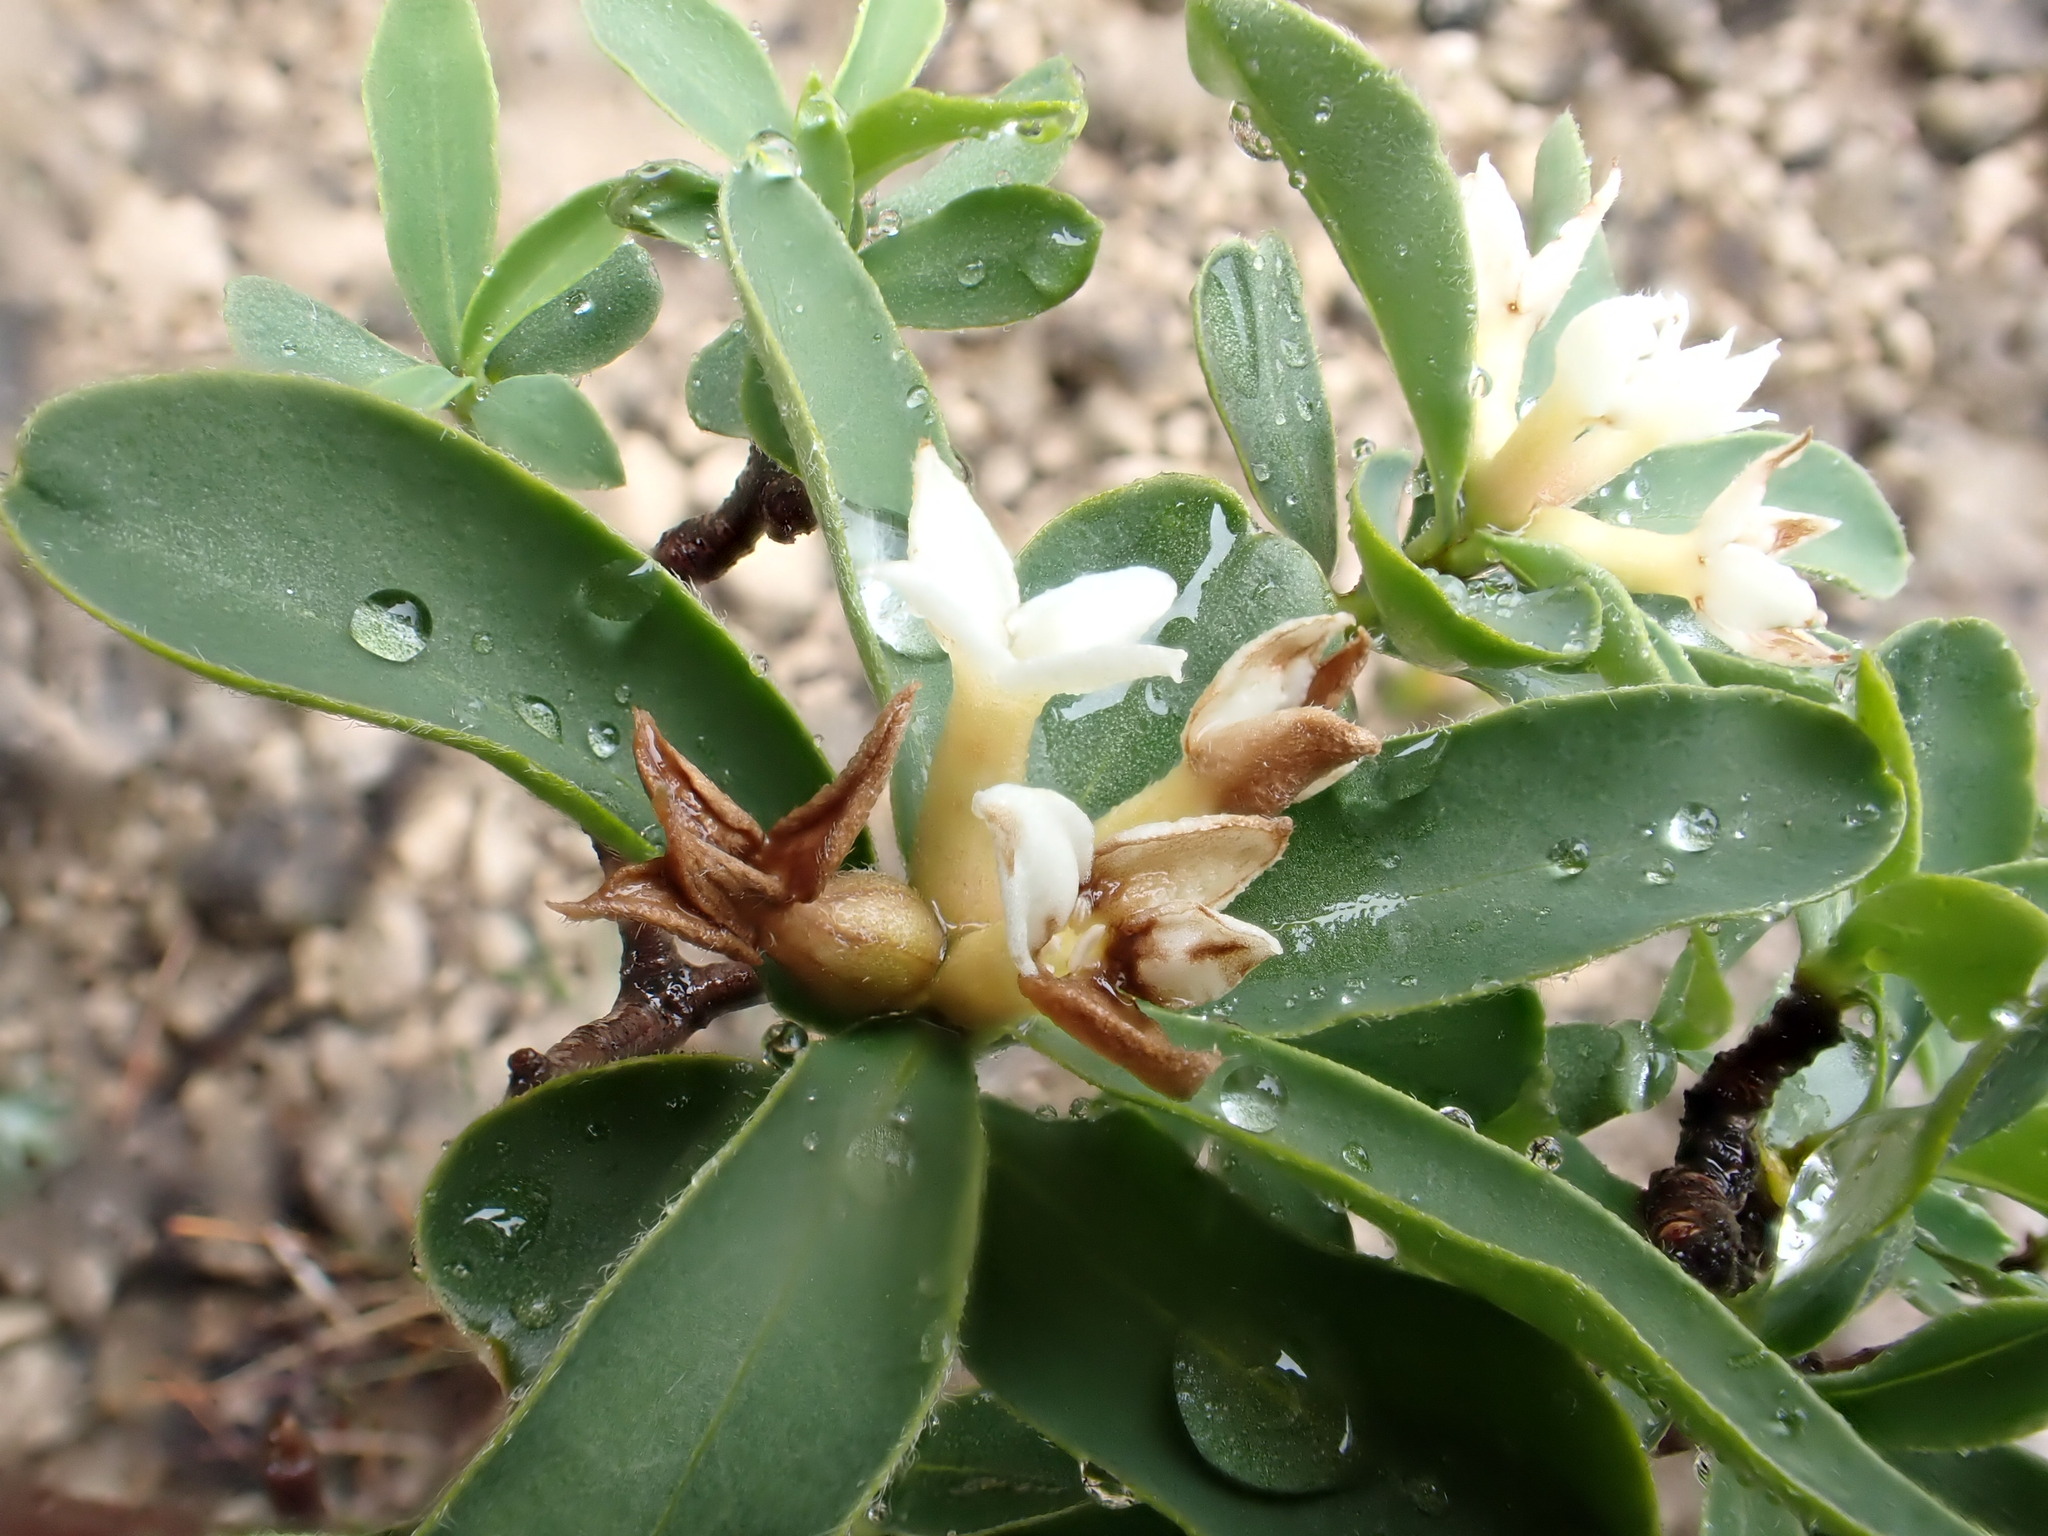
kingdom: Plantae
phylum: Tracheophyta
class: Magnoliopsida
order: Malvales
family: Thymelaeaceae
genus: Daphne
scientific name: Daphne alpina
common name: Alpine daphne
